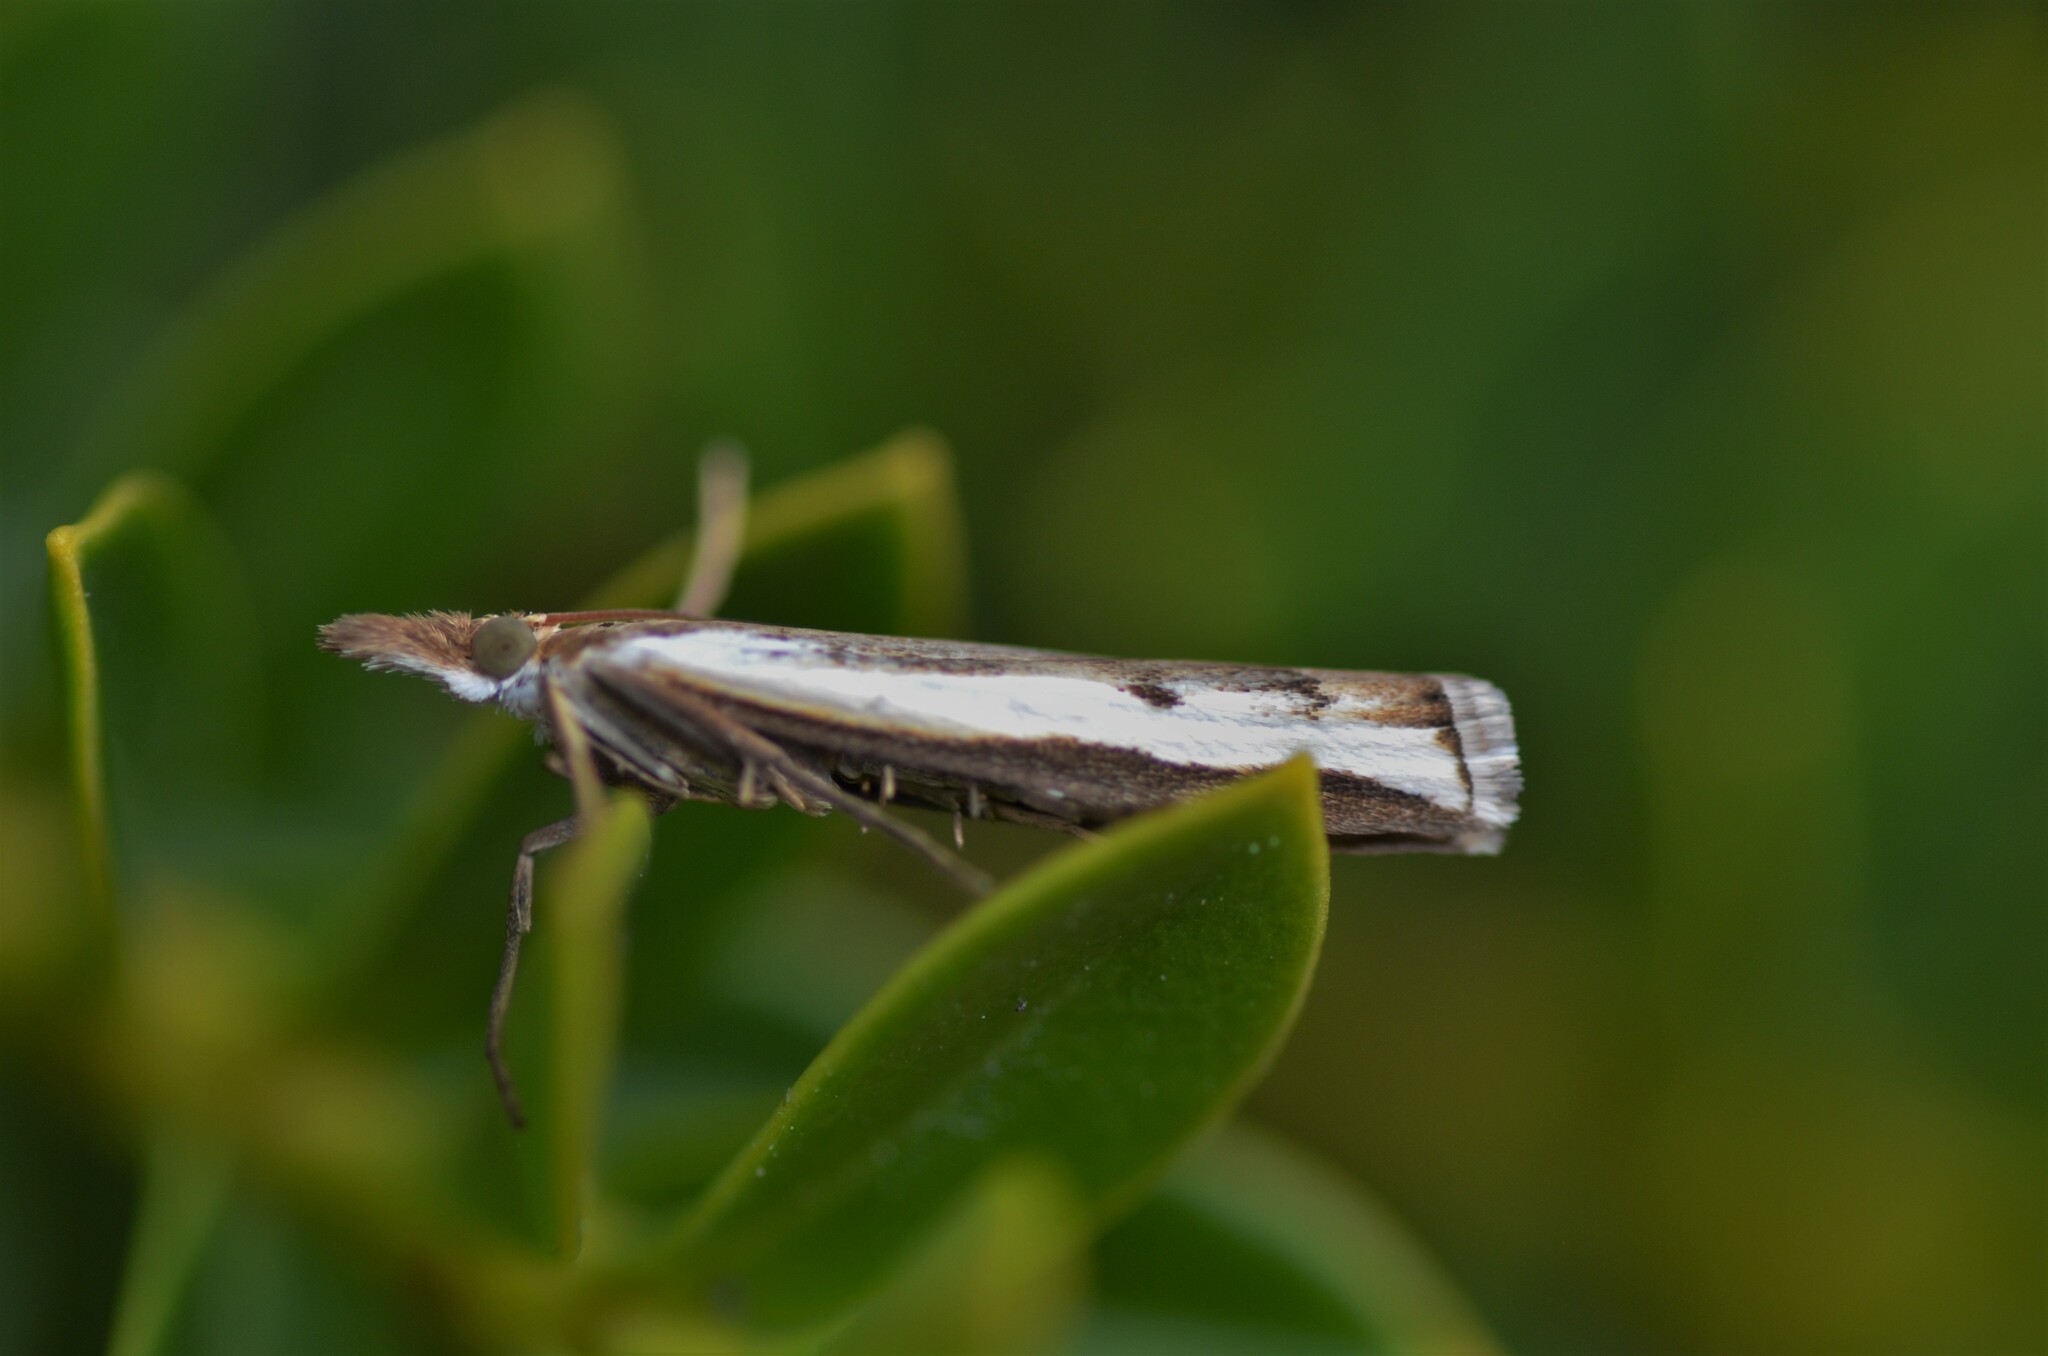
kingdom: Animalia
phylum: Arthropoda
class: Insecta
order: Lepidoptera
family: Crambidae
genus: Orocrambus
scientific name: Orocrambus flexuosellus
